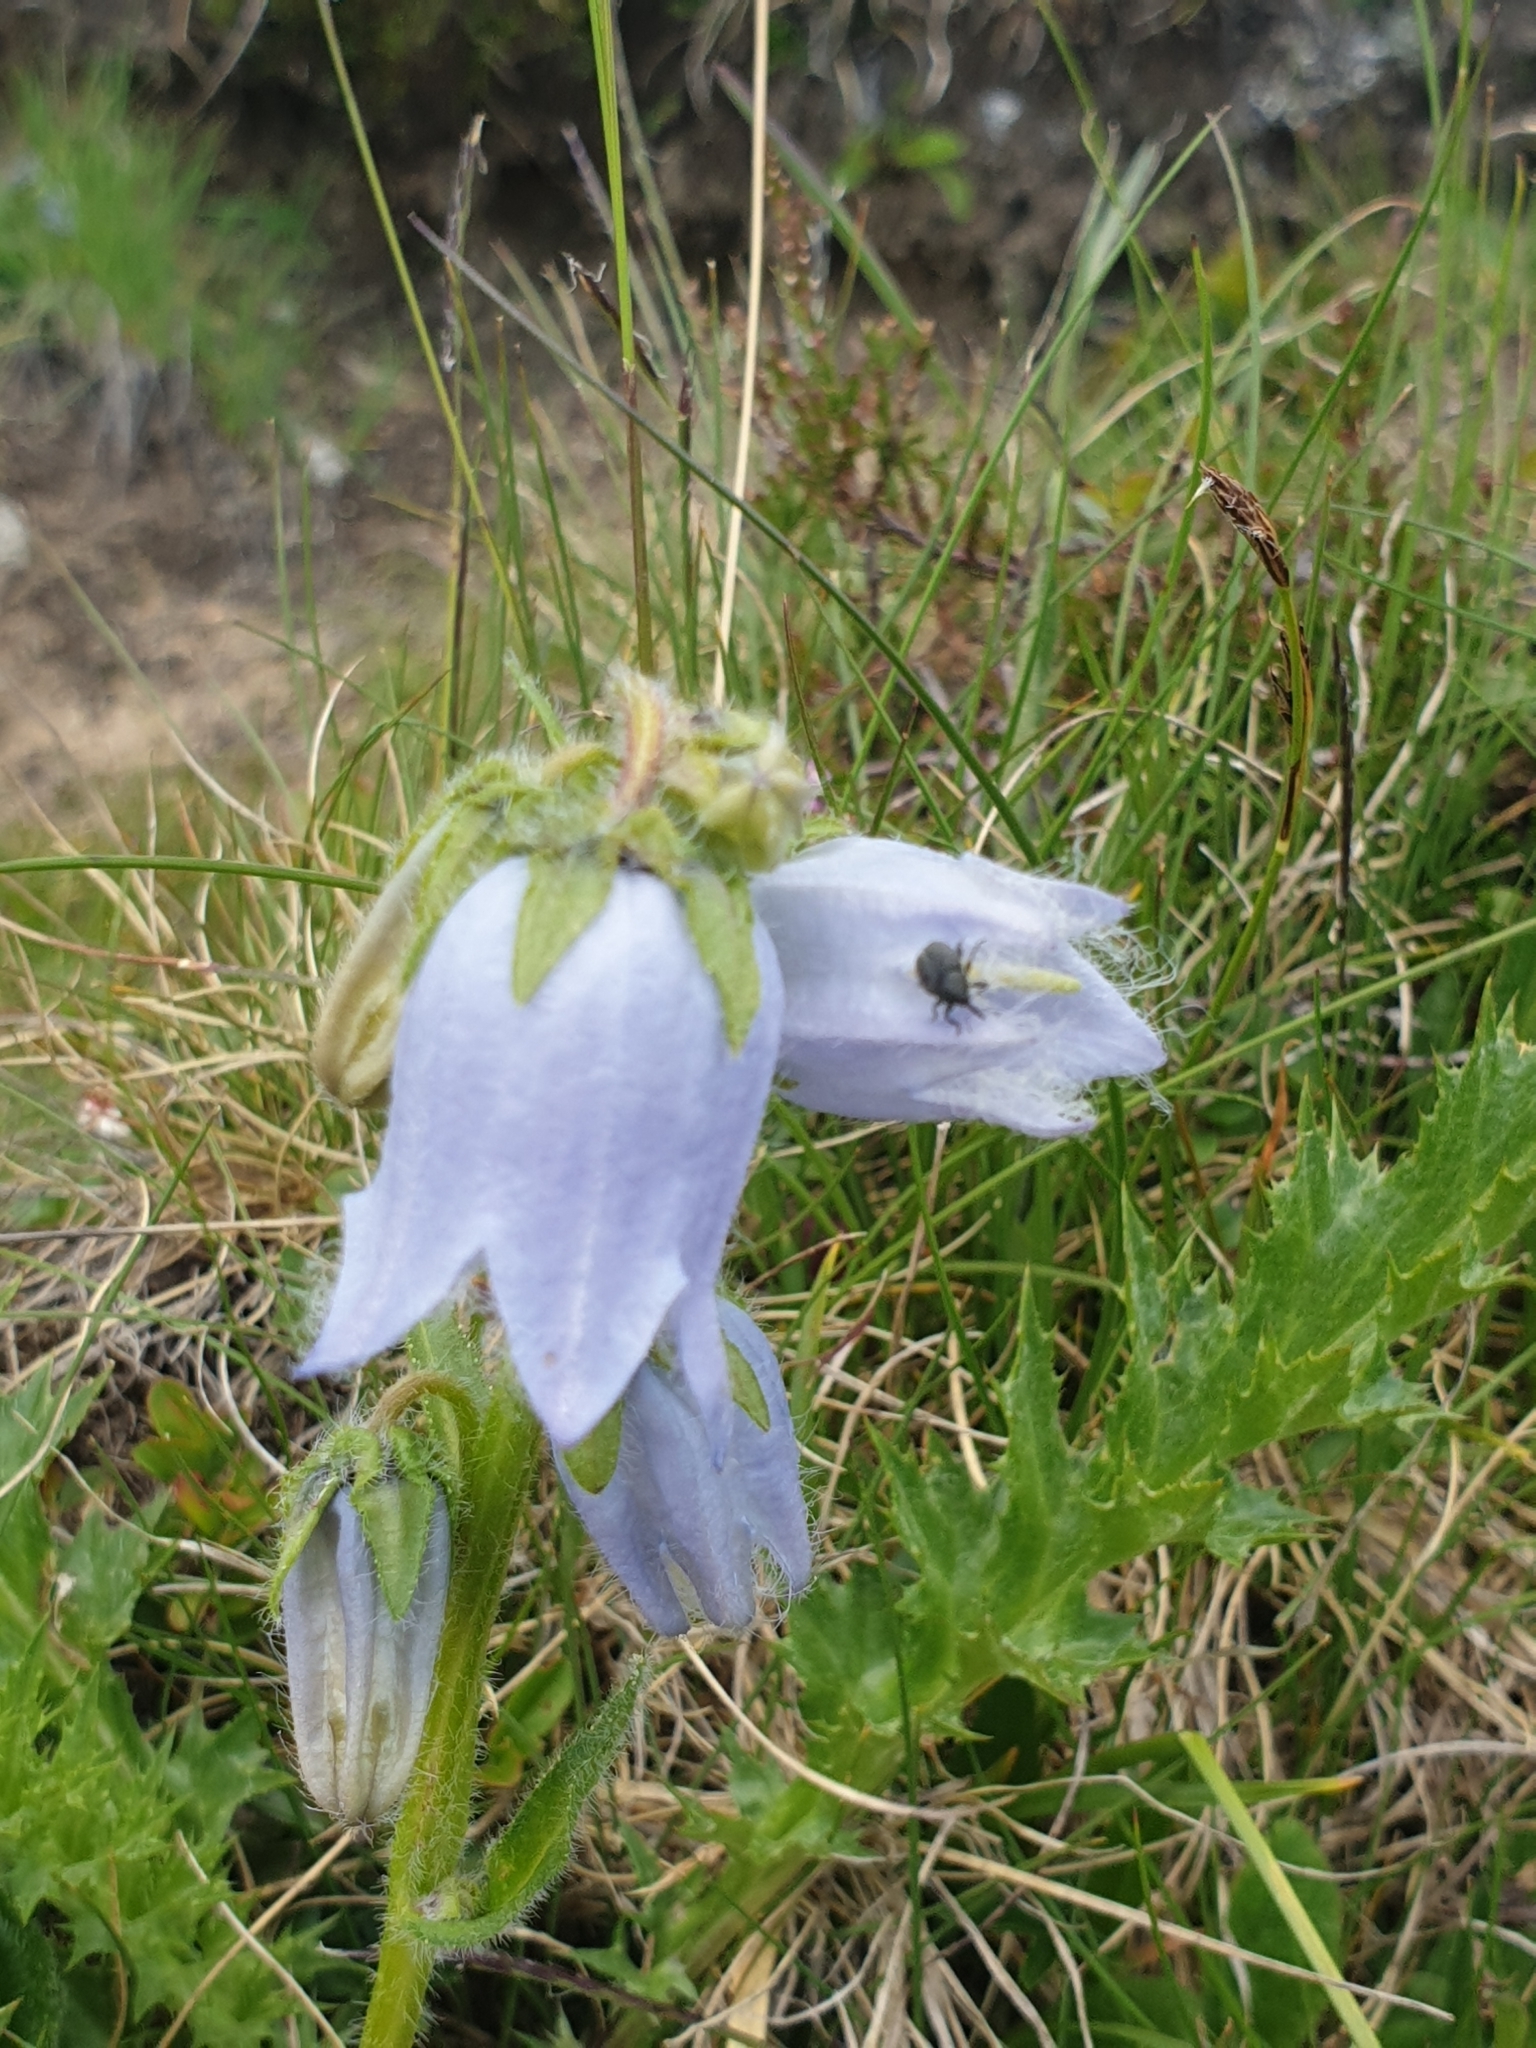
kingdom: Plantae
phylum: Tracheophyta
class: Magnoliopsida
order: Asterales
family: Campanulaceae
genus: Campanula
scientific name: Campanula barbata
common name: Bearded bellflower
